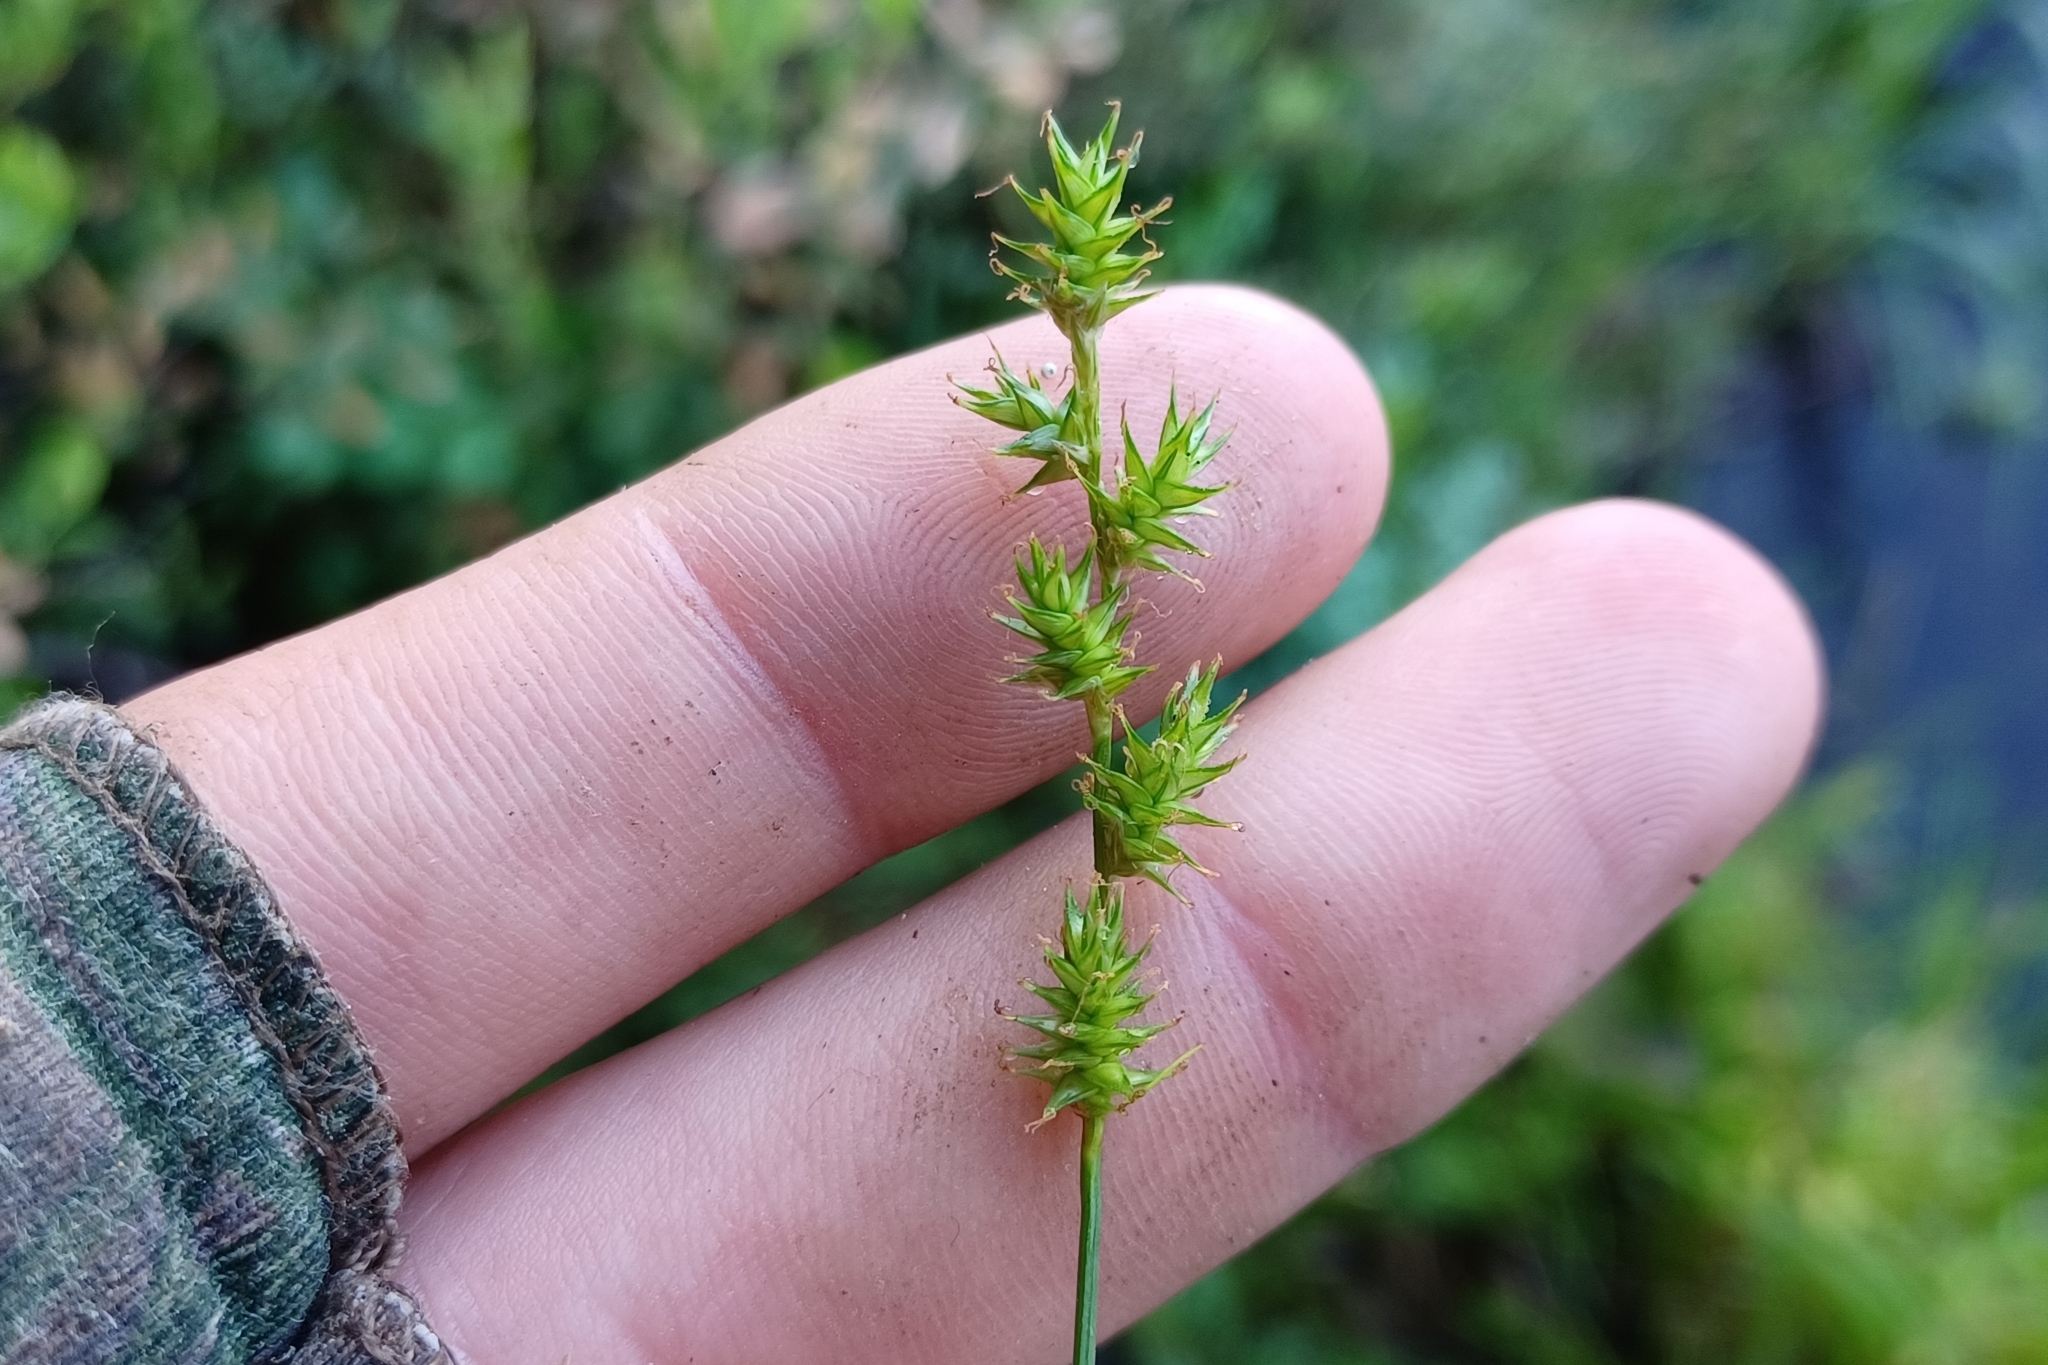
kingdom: Plantae
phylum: Tracheophyta
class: Liliopsida
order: Poales
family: Cyperaceae
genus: Carex
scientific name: Carex echinata
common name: Star sedge
